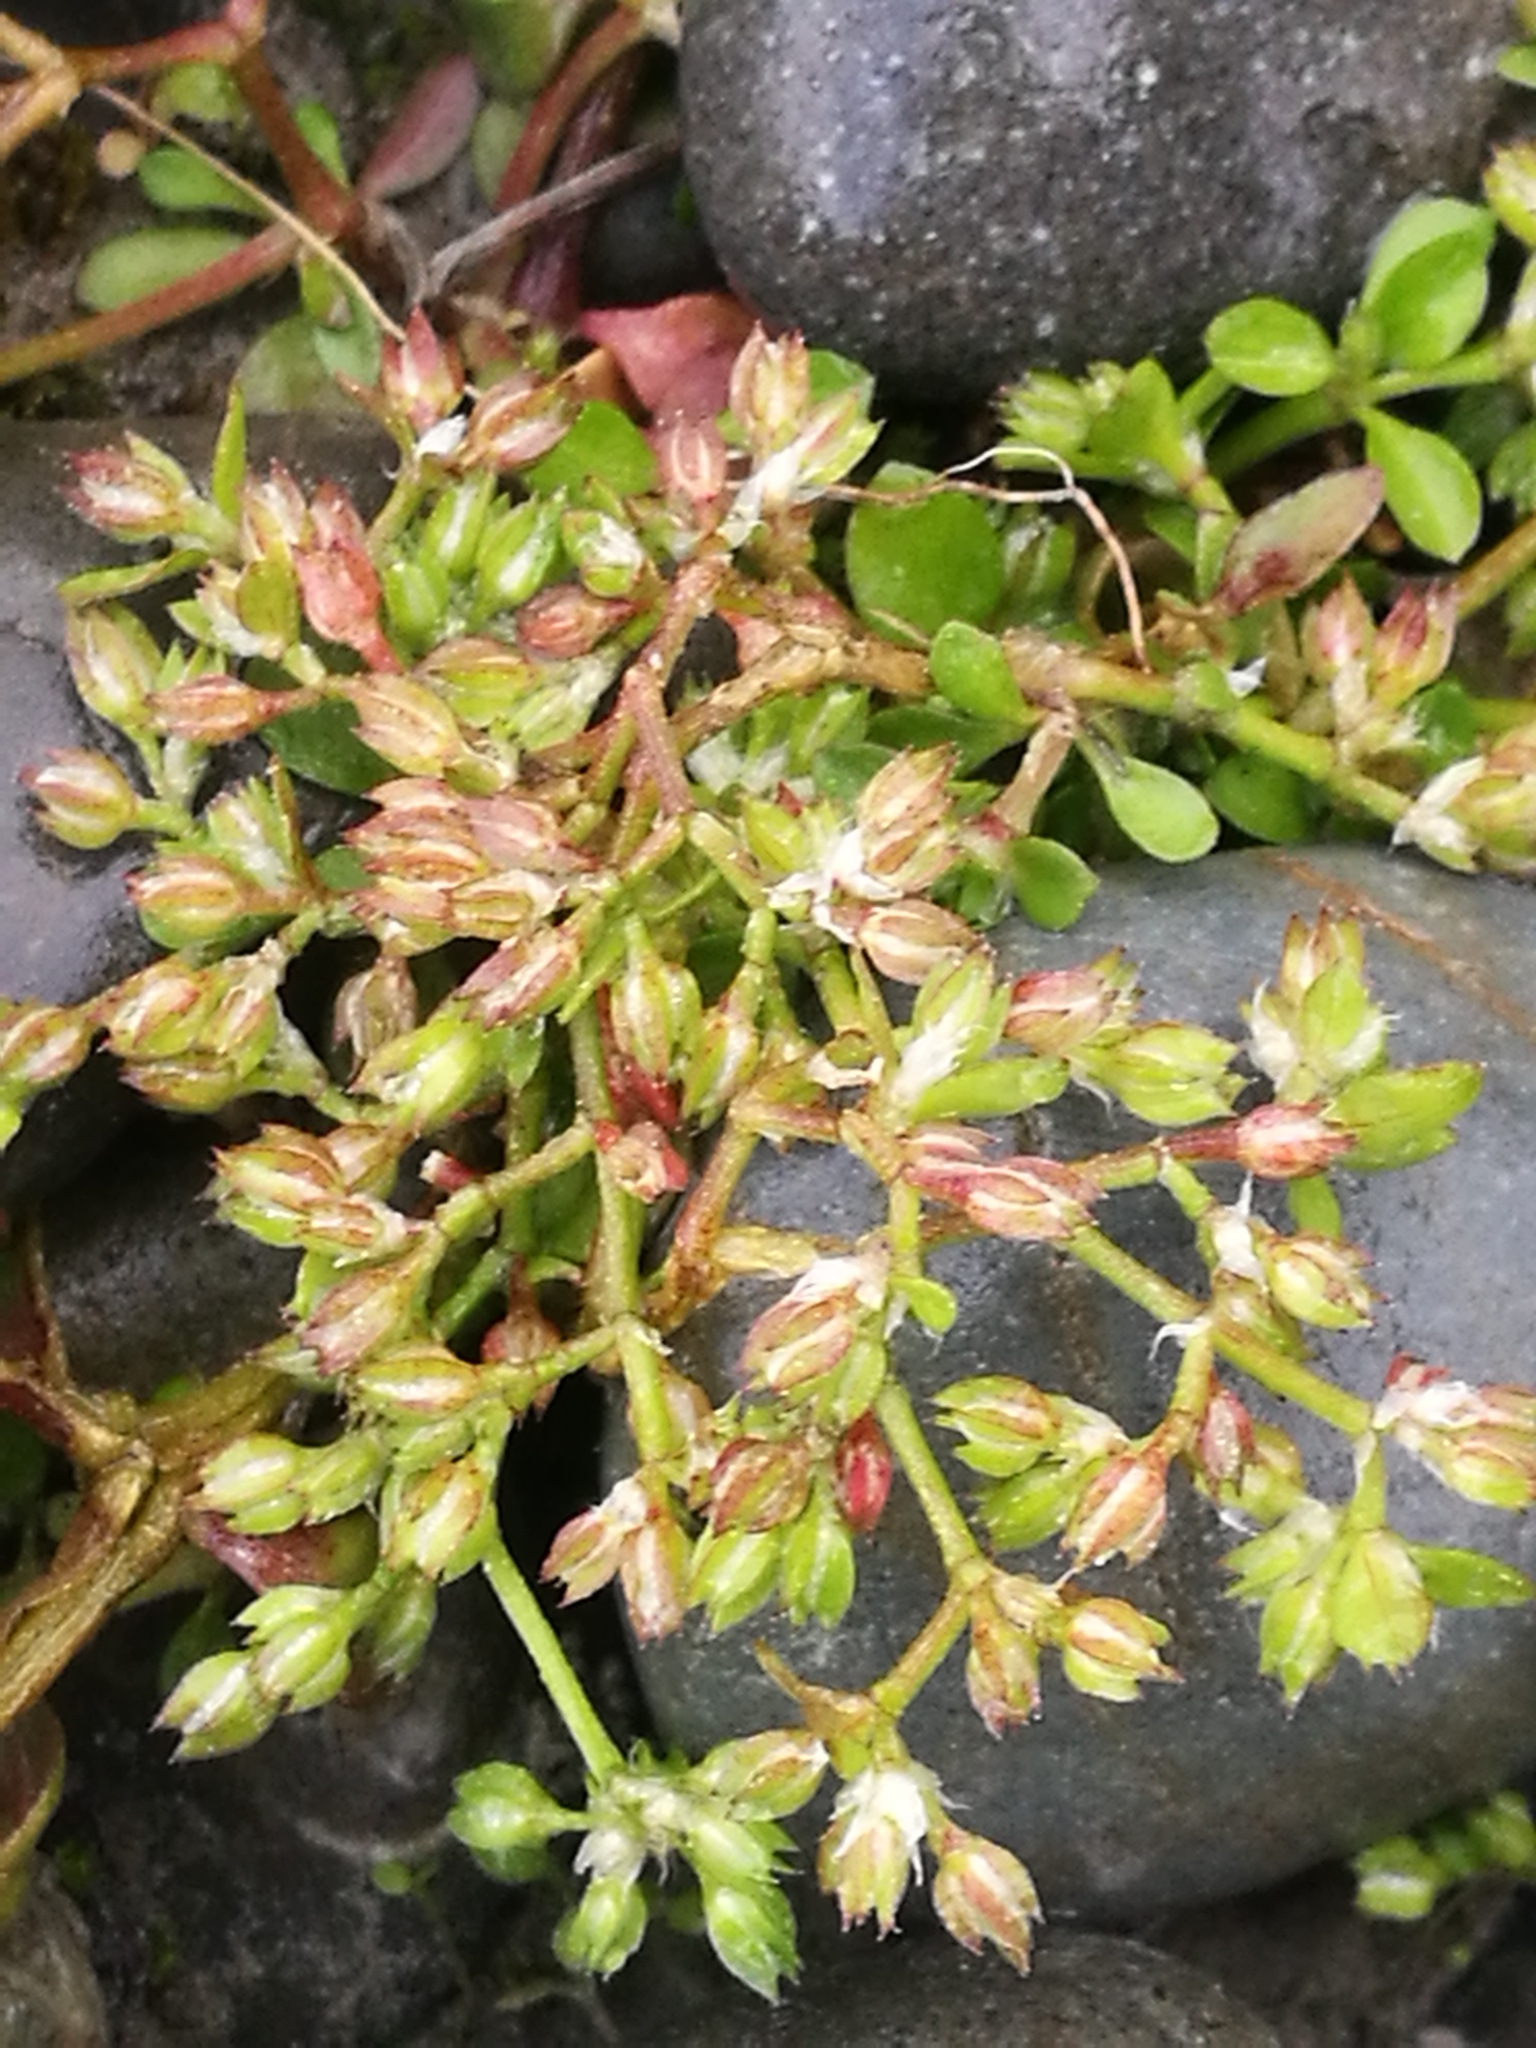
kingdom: Plantae
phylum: Tracheophyta
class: Magnoliopsida
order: Caryophyllales
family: Caryophyllaceae
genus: Polycarpon
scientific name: Polycarpon tetraphyllum
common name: Four-leaved all-seed
